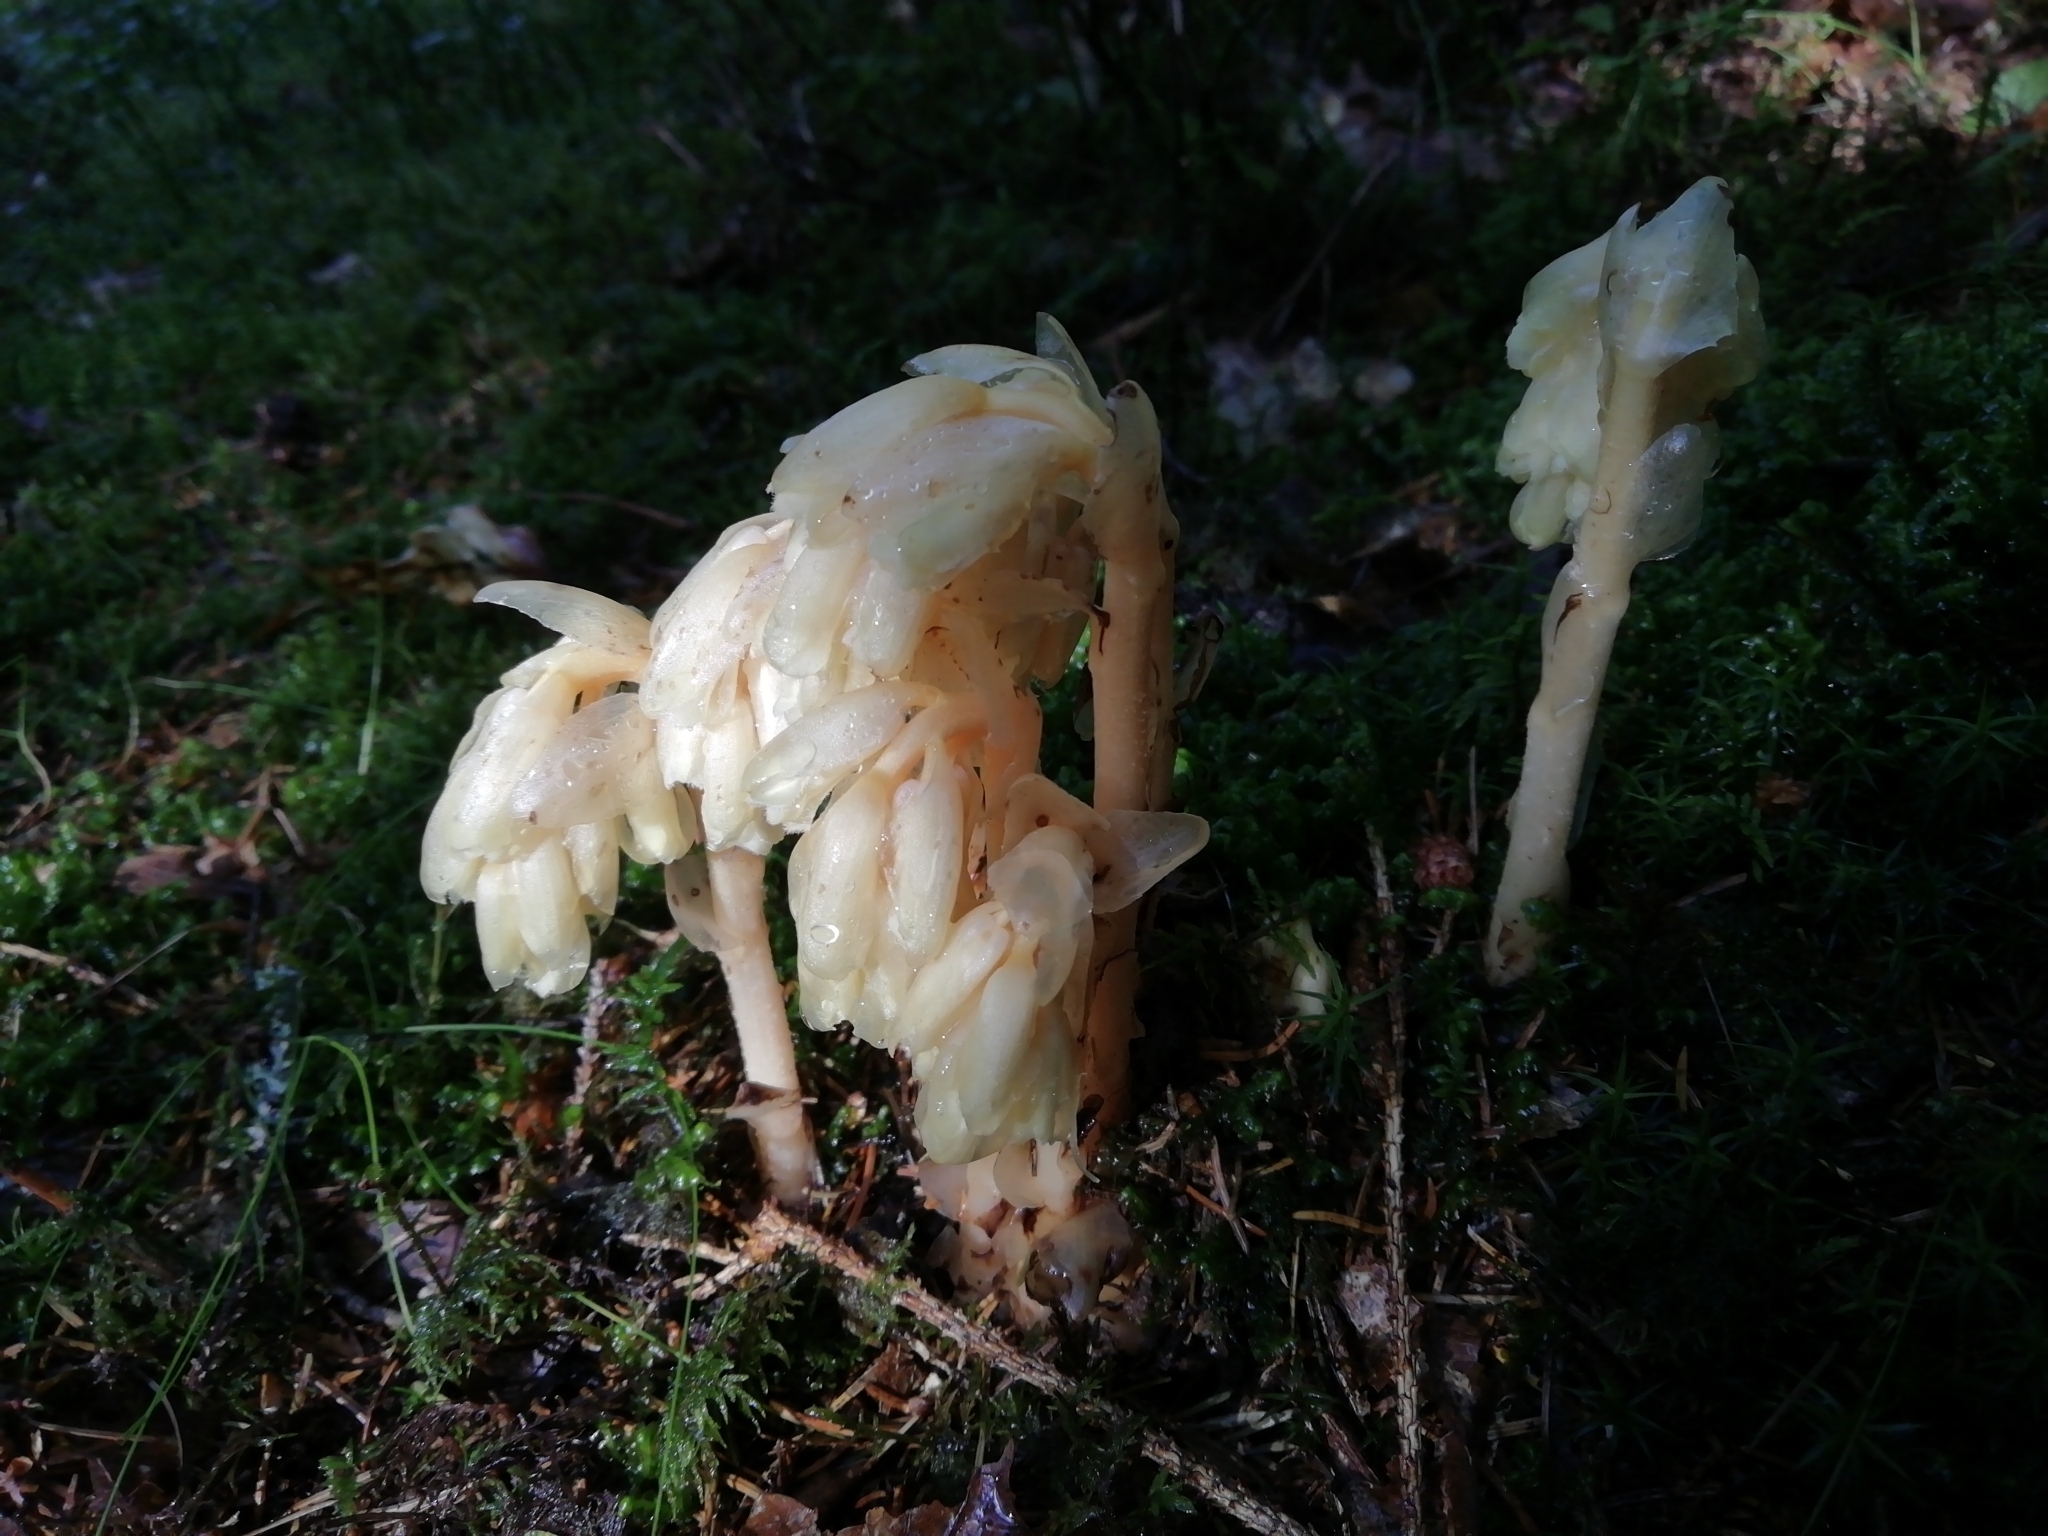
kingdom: Plantae
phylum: Tracheophyta
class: Magnoliopsida
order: Ericales
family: Ericaceae
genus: Hypopitys
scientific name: Hypopitys monotropa
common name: Yellow bird's-nest
